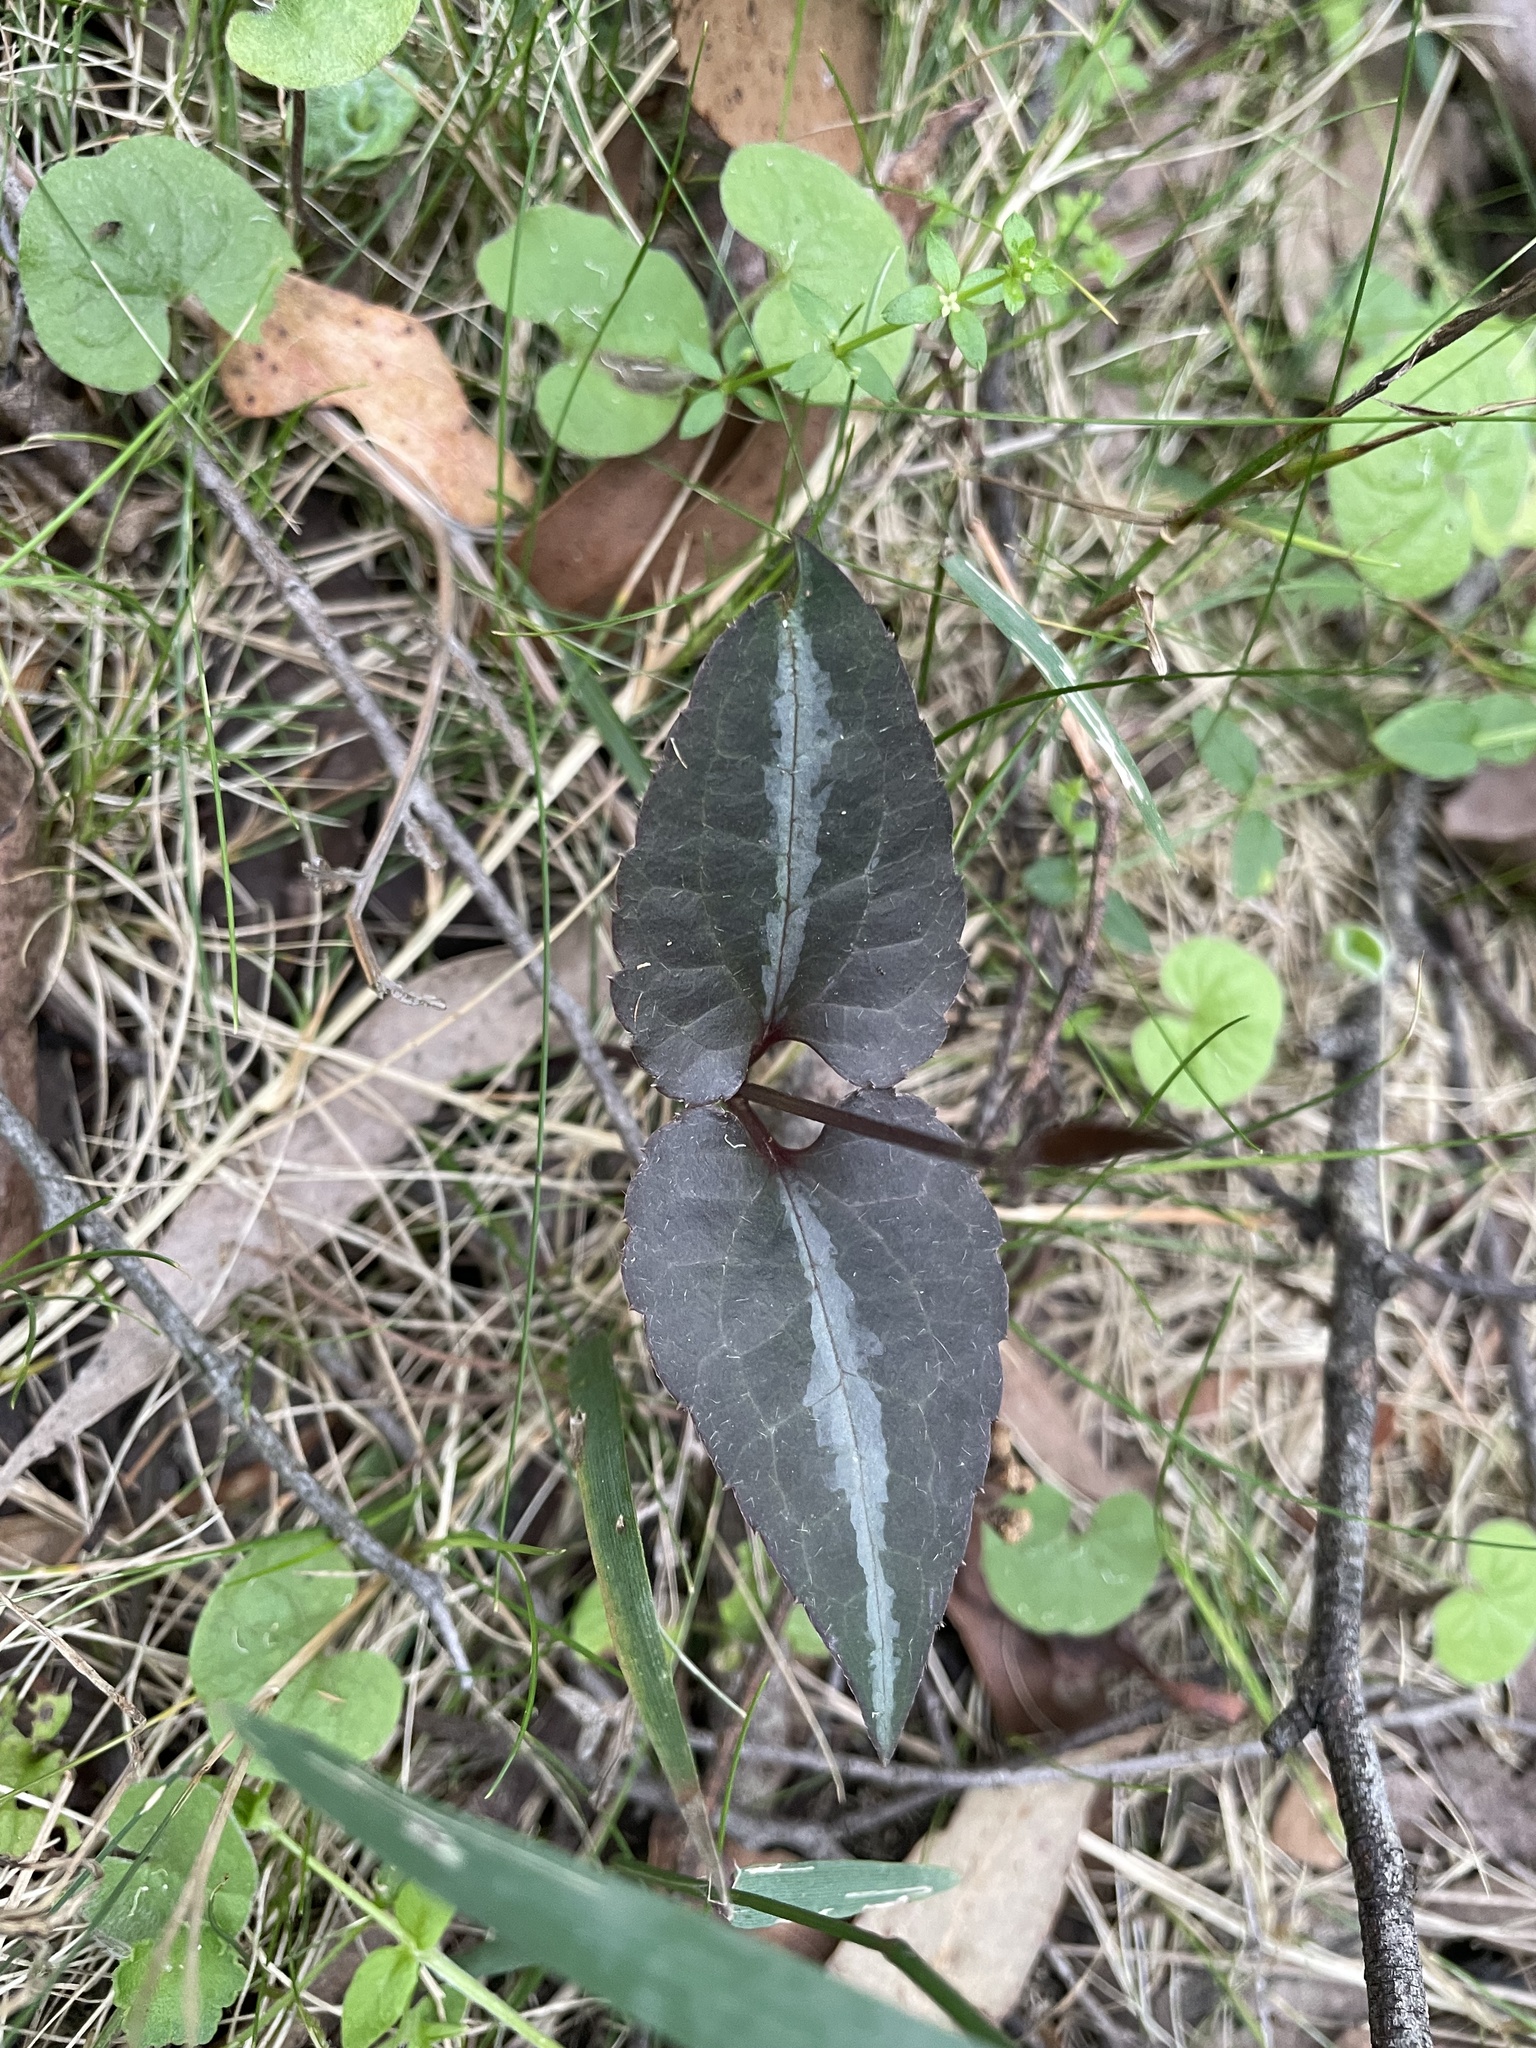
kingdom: Plantae
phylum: Tracheophyta
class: Magnoliopsida
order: Ranunculales
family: Ranunculaceae
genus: Clematis
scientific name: Clematis aristata
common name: Mountain clematis
